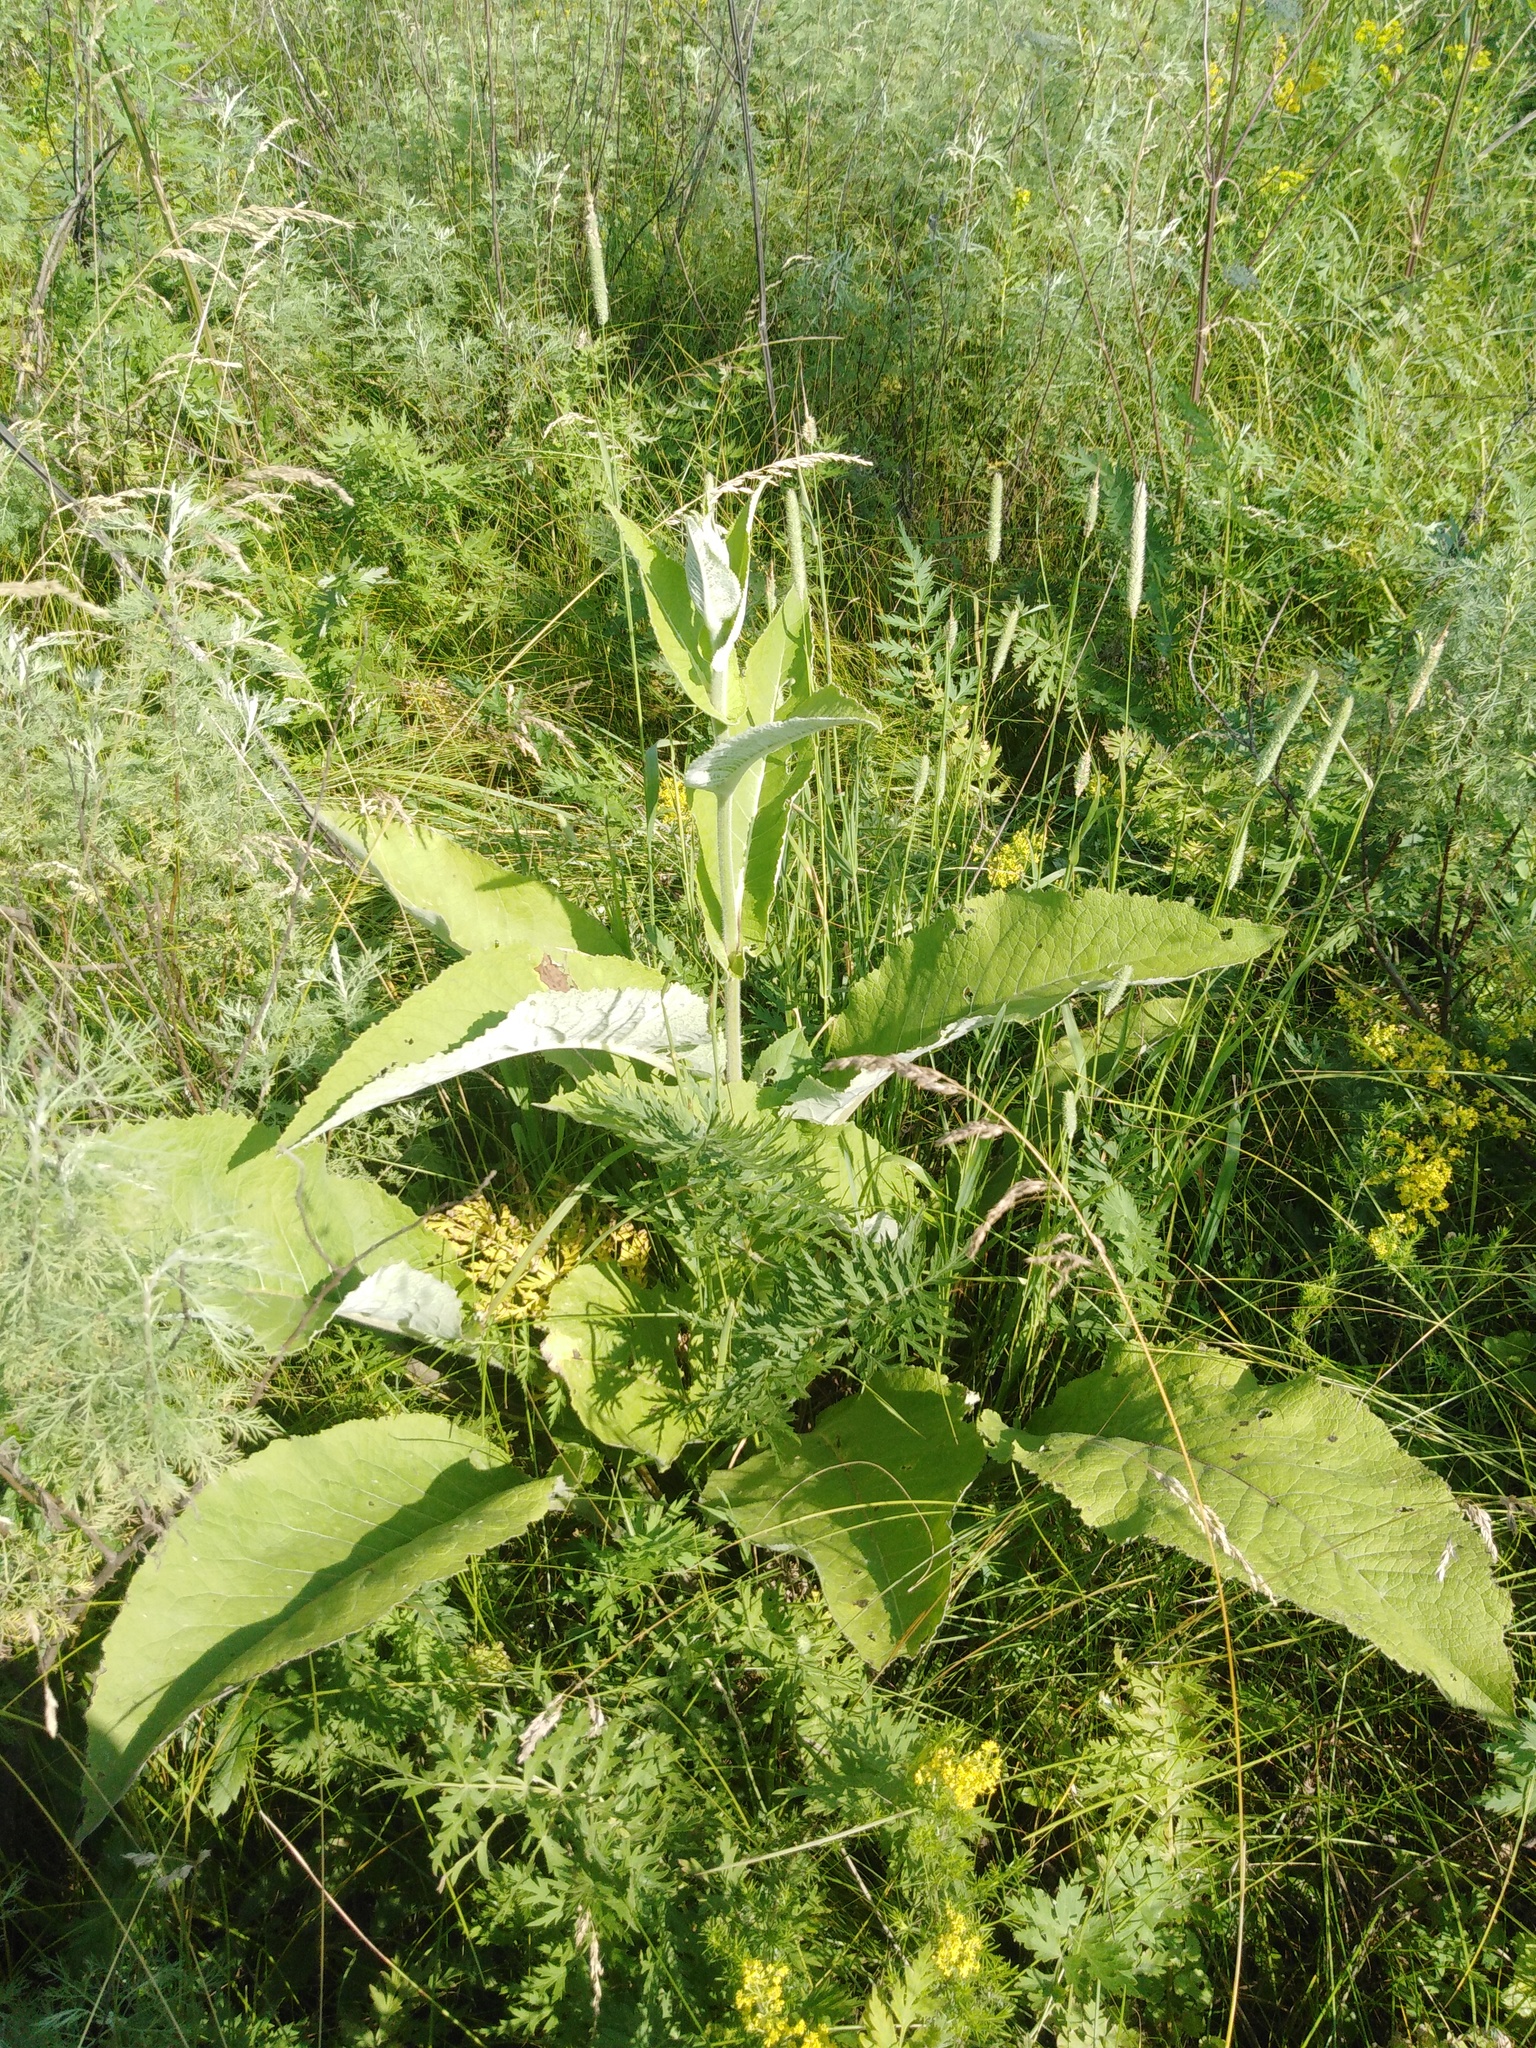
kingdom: Plantae
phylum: Tracheophyta
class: Magnoliopsida
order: Asterales
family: Asteraceae
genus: Inula
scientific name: Inula helenium
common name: Elecampane
